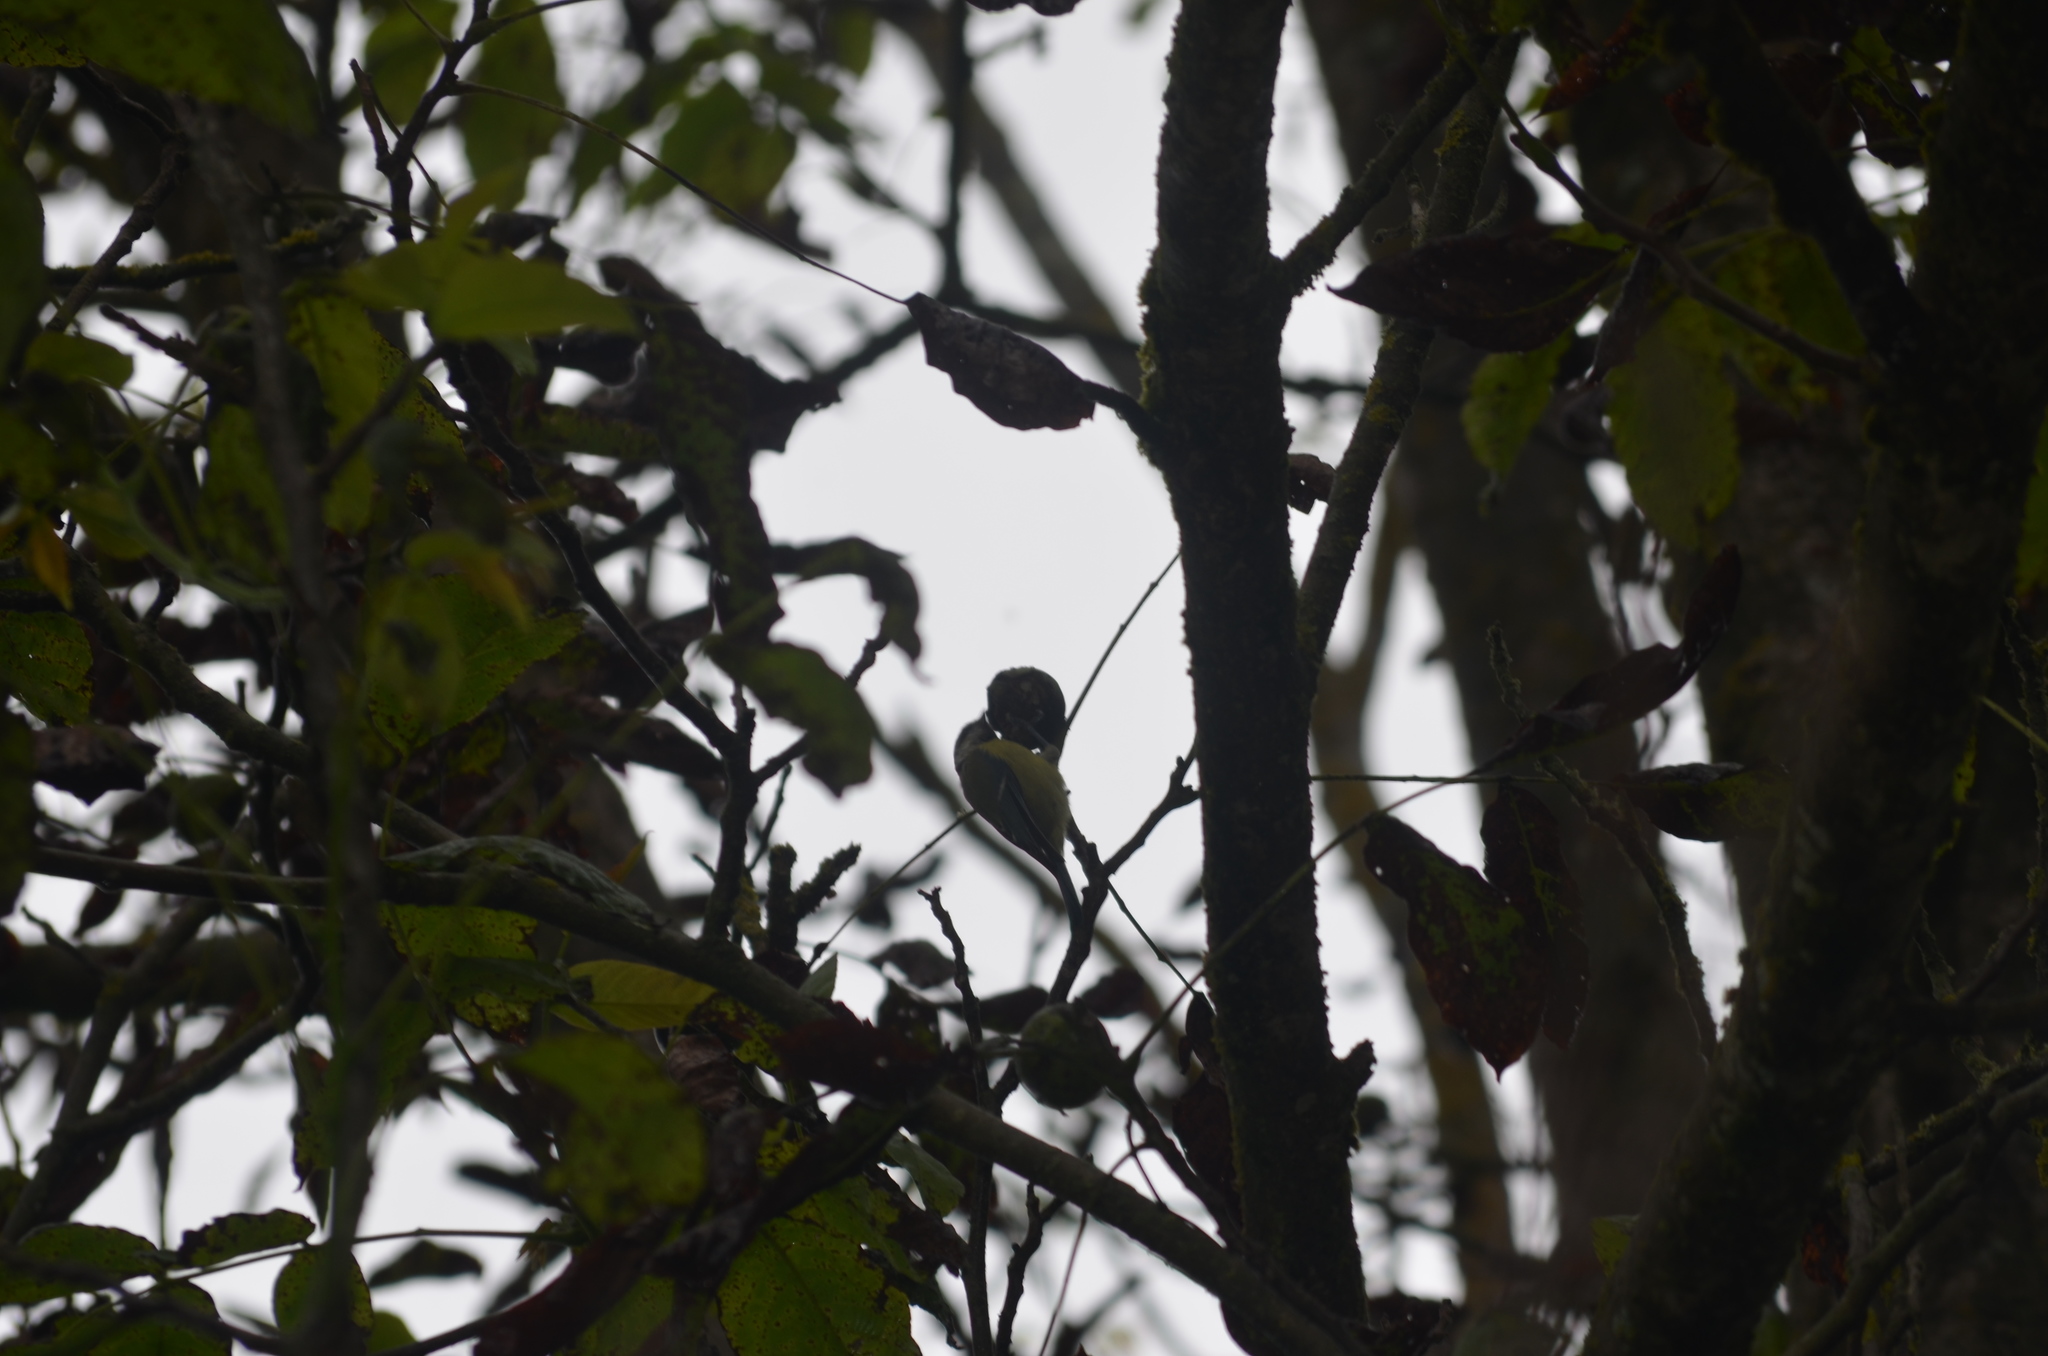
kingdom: Animalia
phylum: Chordata
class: Aves
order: Passeriformes
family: Paridae
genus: Cyanistes
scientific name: Cyanistes caeruleus
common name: Eurasian blue tit
